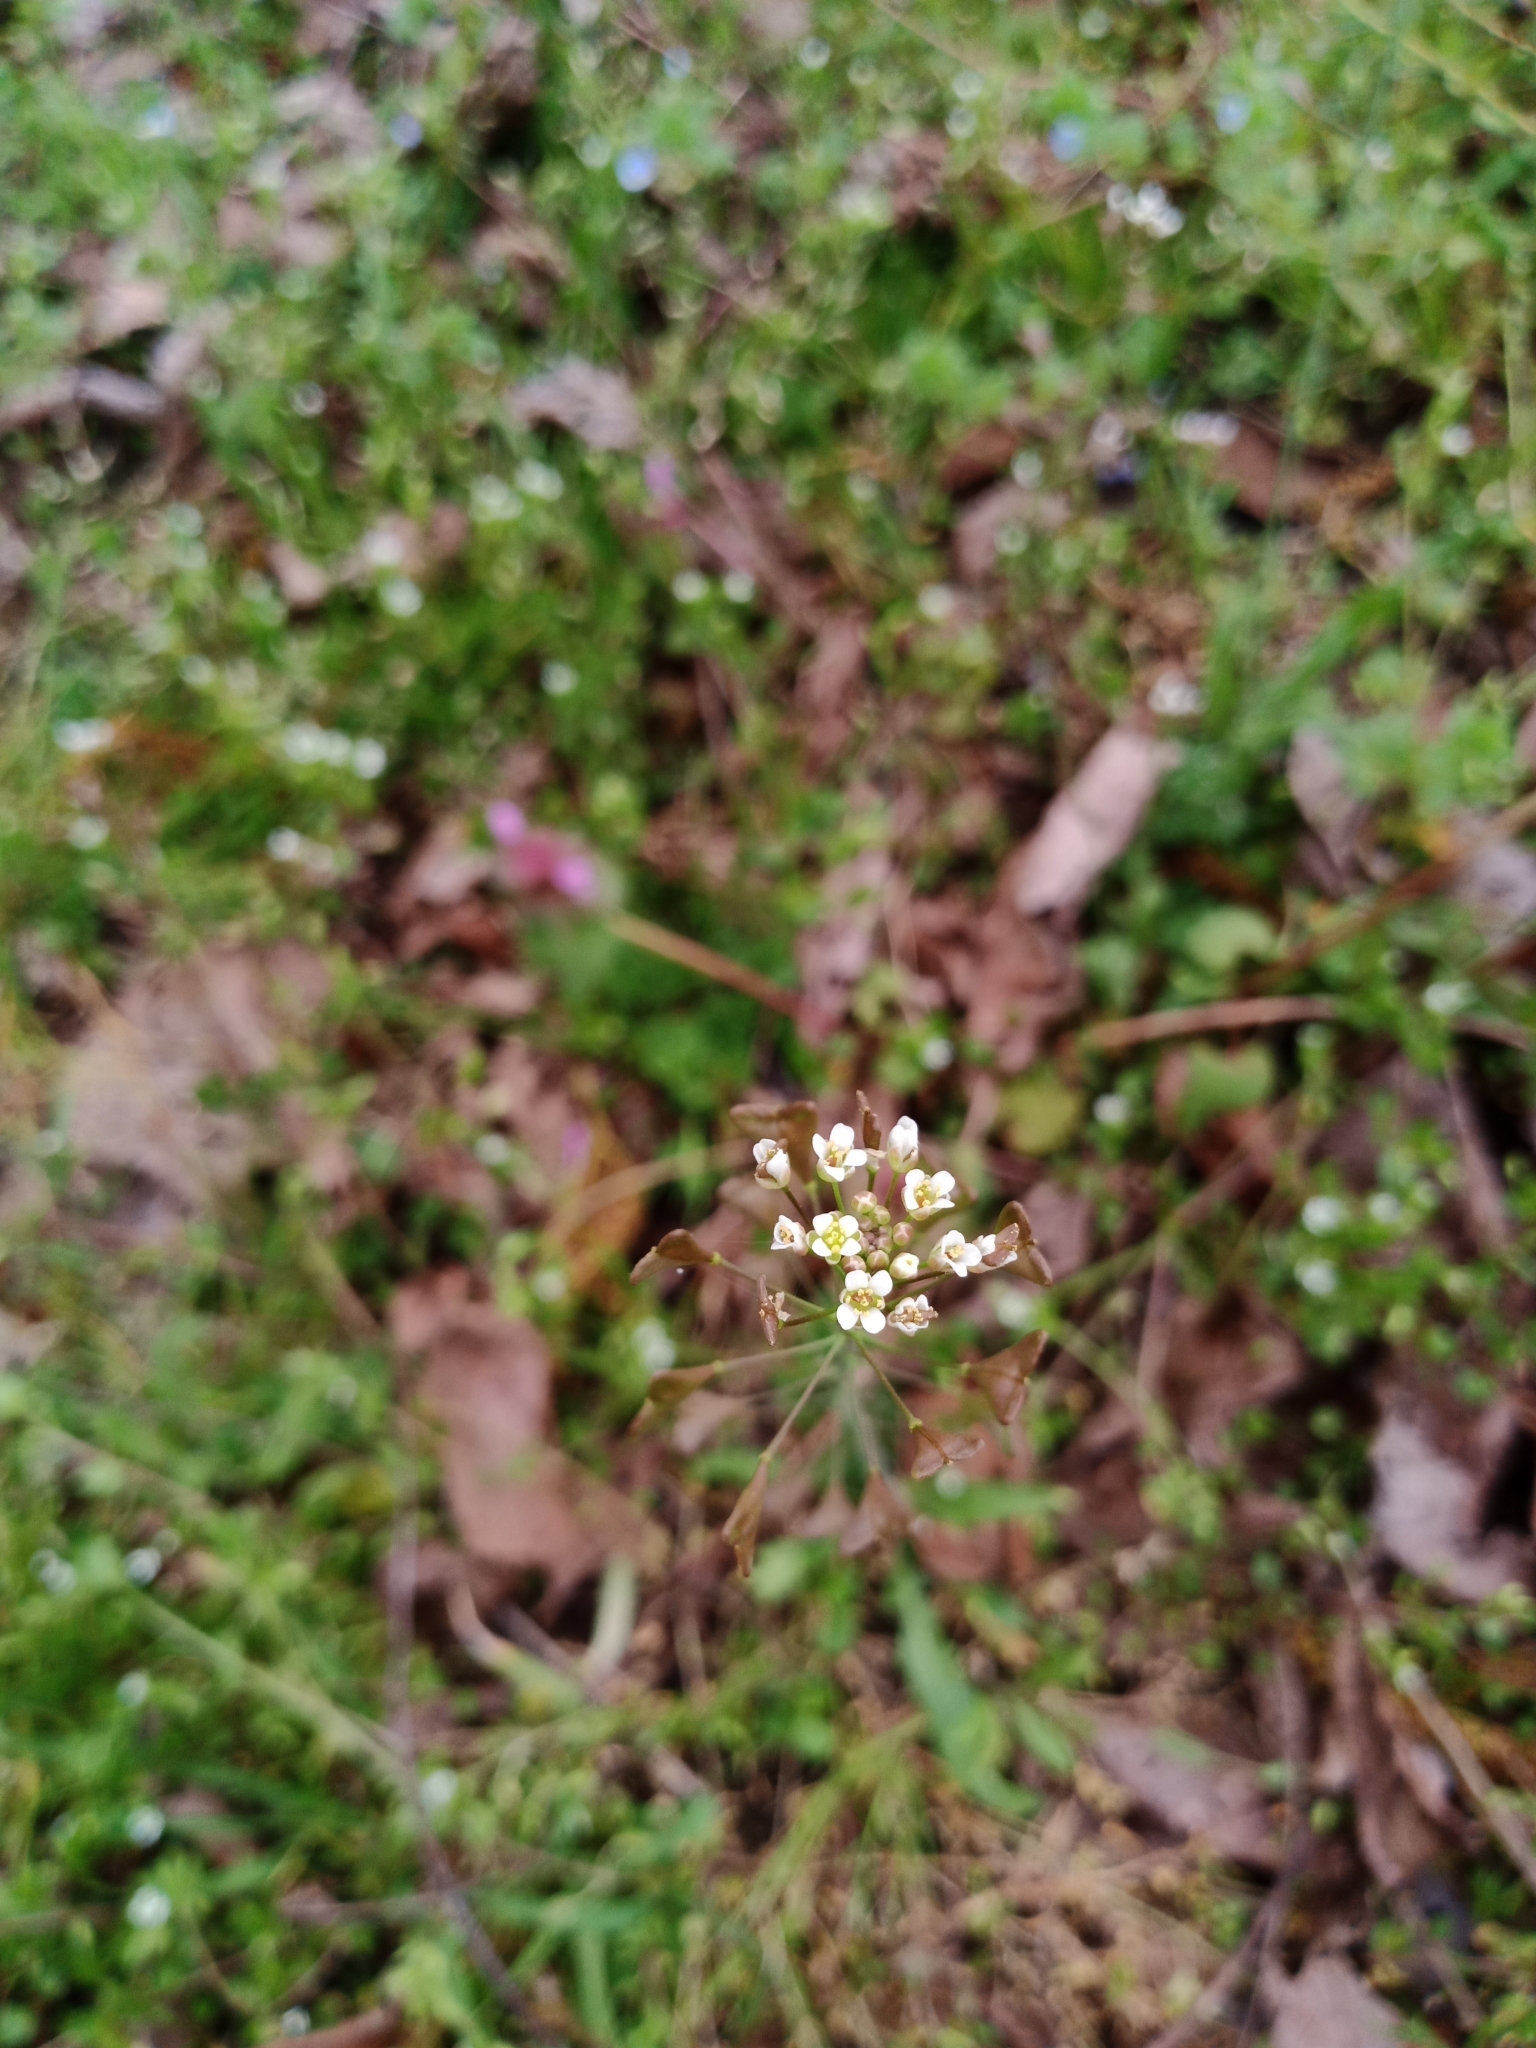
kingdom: Plantae
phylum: Tracheophyta
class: Magnoliopsida
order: Brassicales
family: Brassicaceae
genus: Capsella
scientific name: Capsella bursa-pastoris
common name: Shepherd's purse
